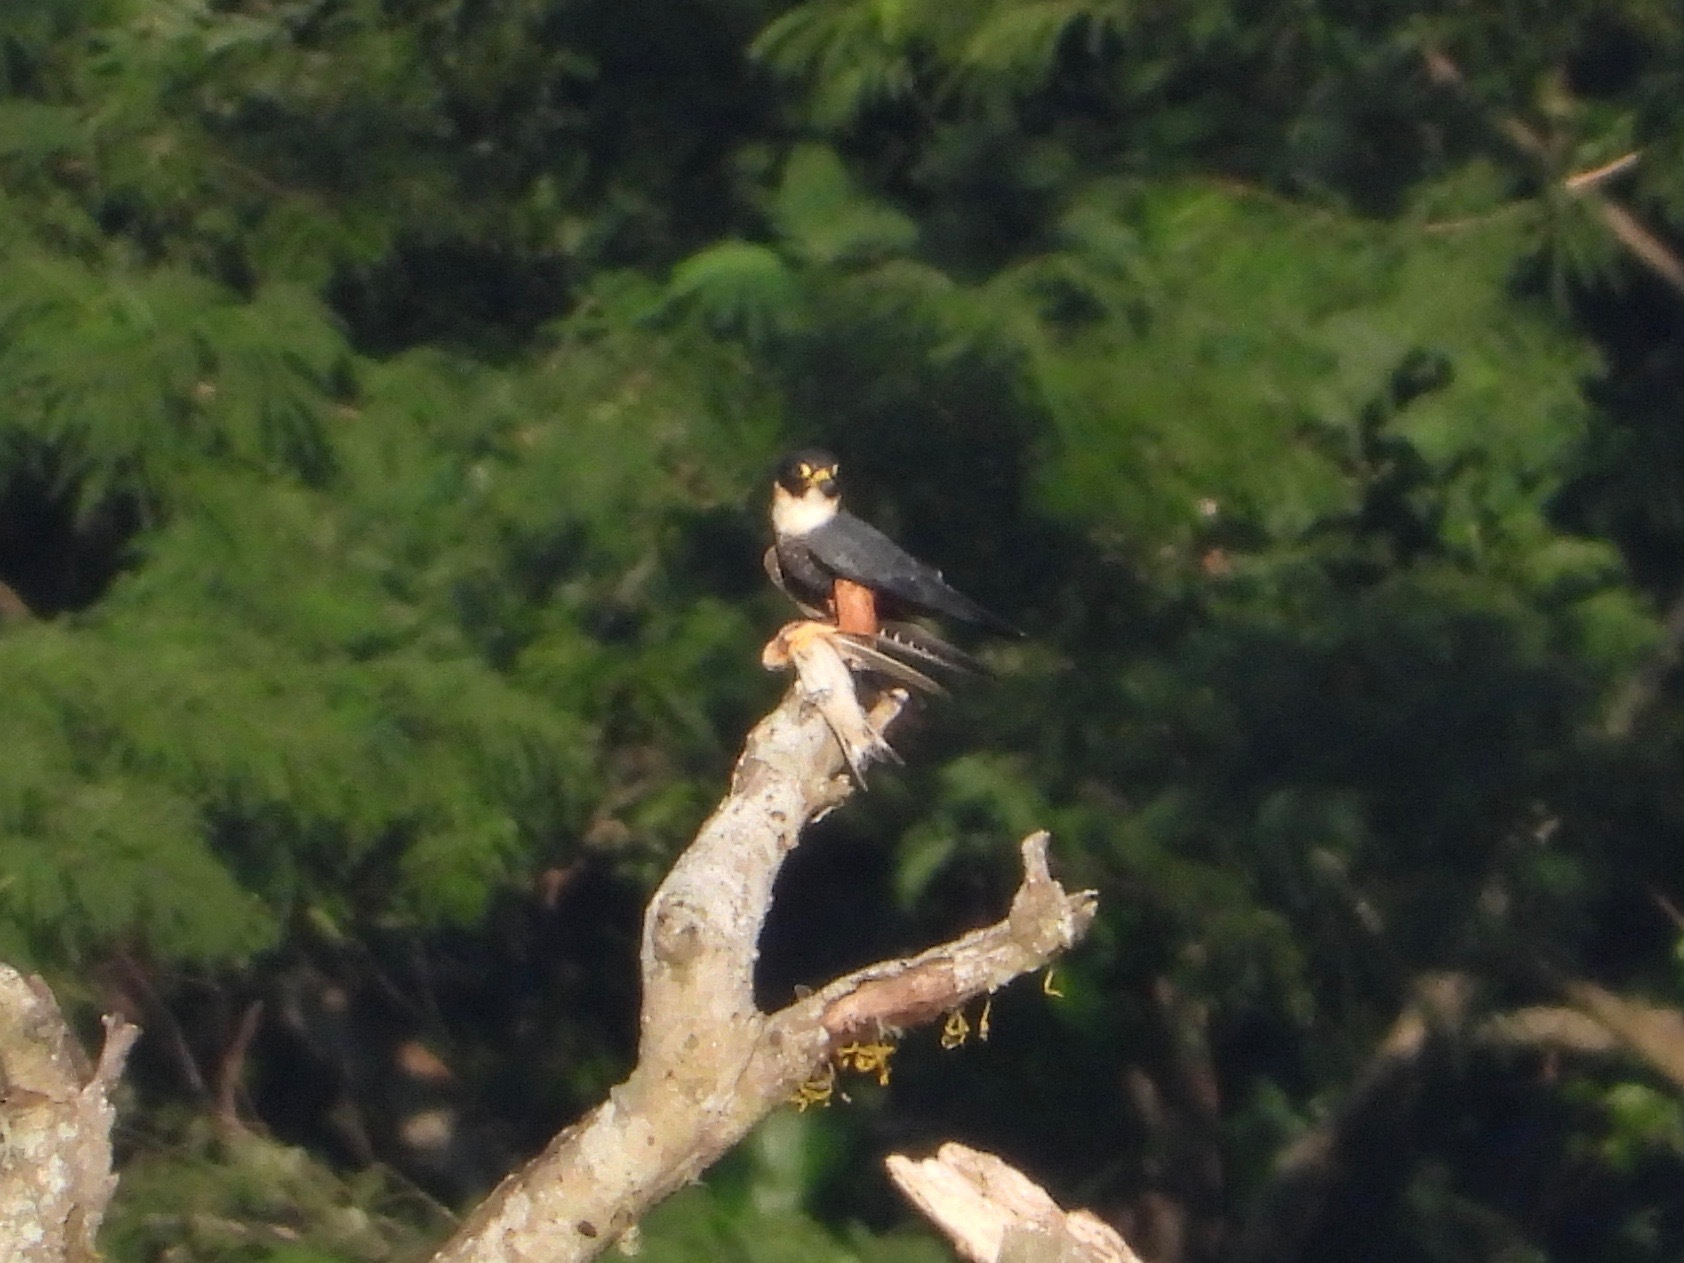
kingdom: Animalia
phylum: Chordata
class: Aves
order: Falconiformes
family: Falconidae
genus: Falco
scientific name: Falco rufigularis
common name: Bat falcon
